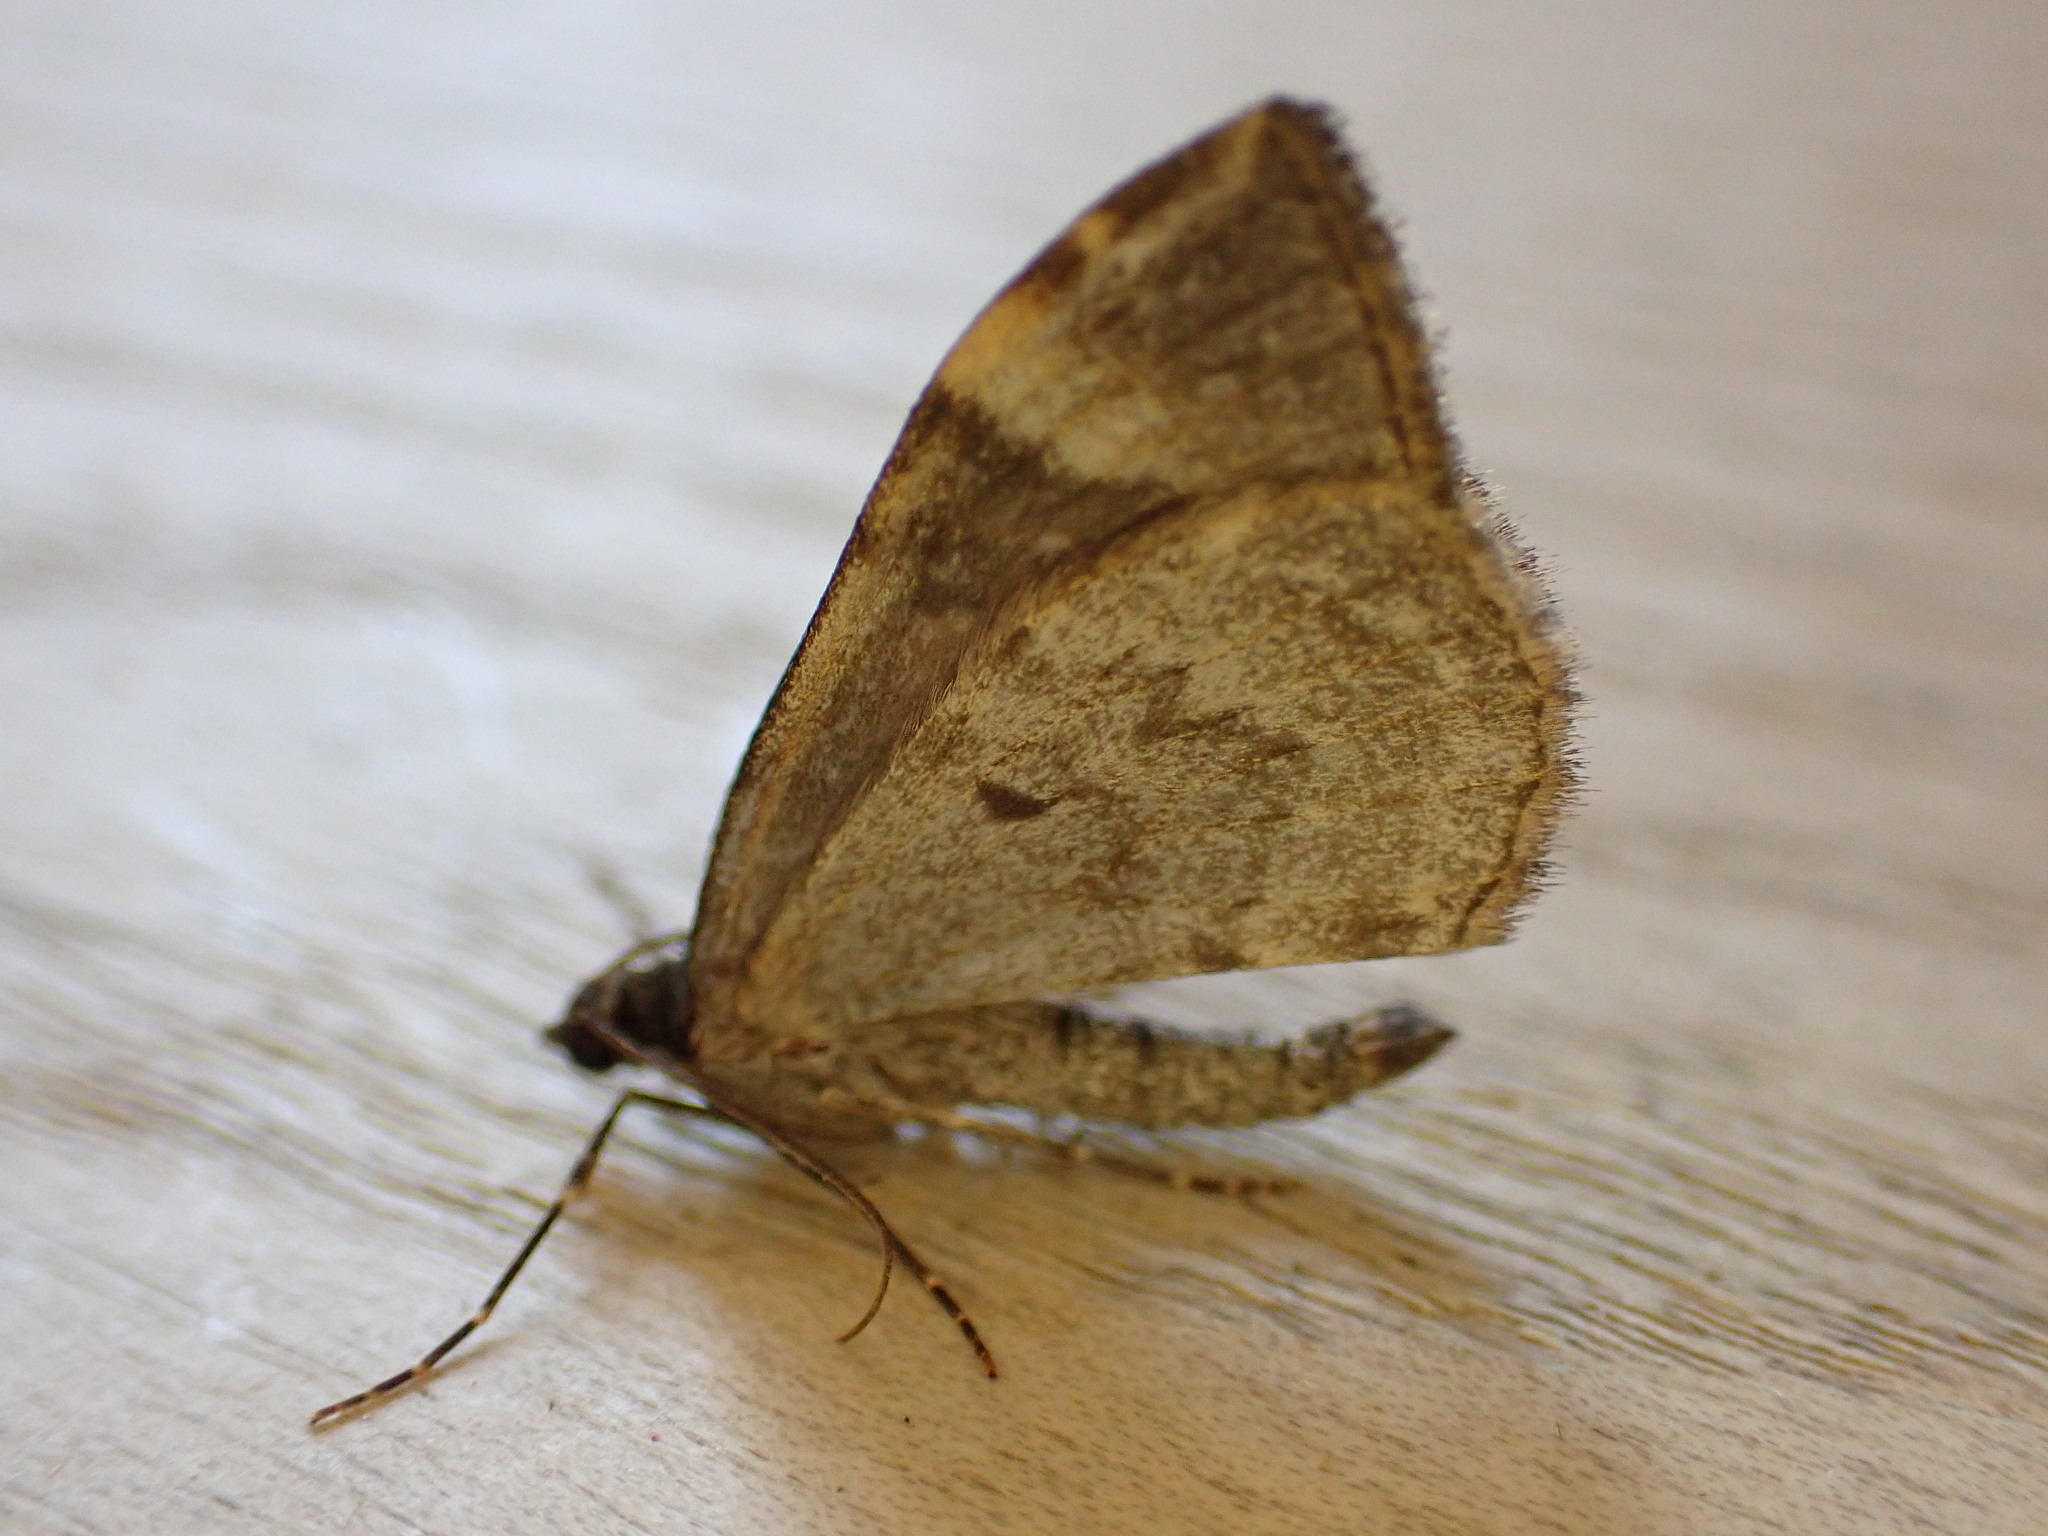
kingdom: Animalia
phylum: Arthropoda
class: Insecta
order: Lepidoptera
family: Geometridae
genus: Dysstroma
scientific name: Dysstroma truncata
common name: Common marbled carpet
